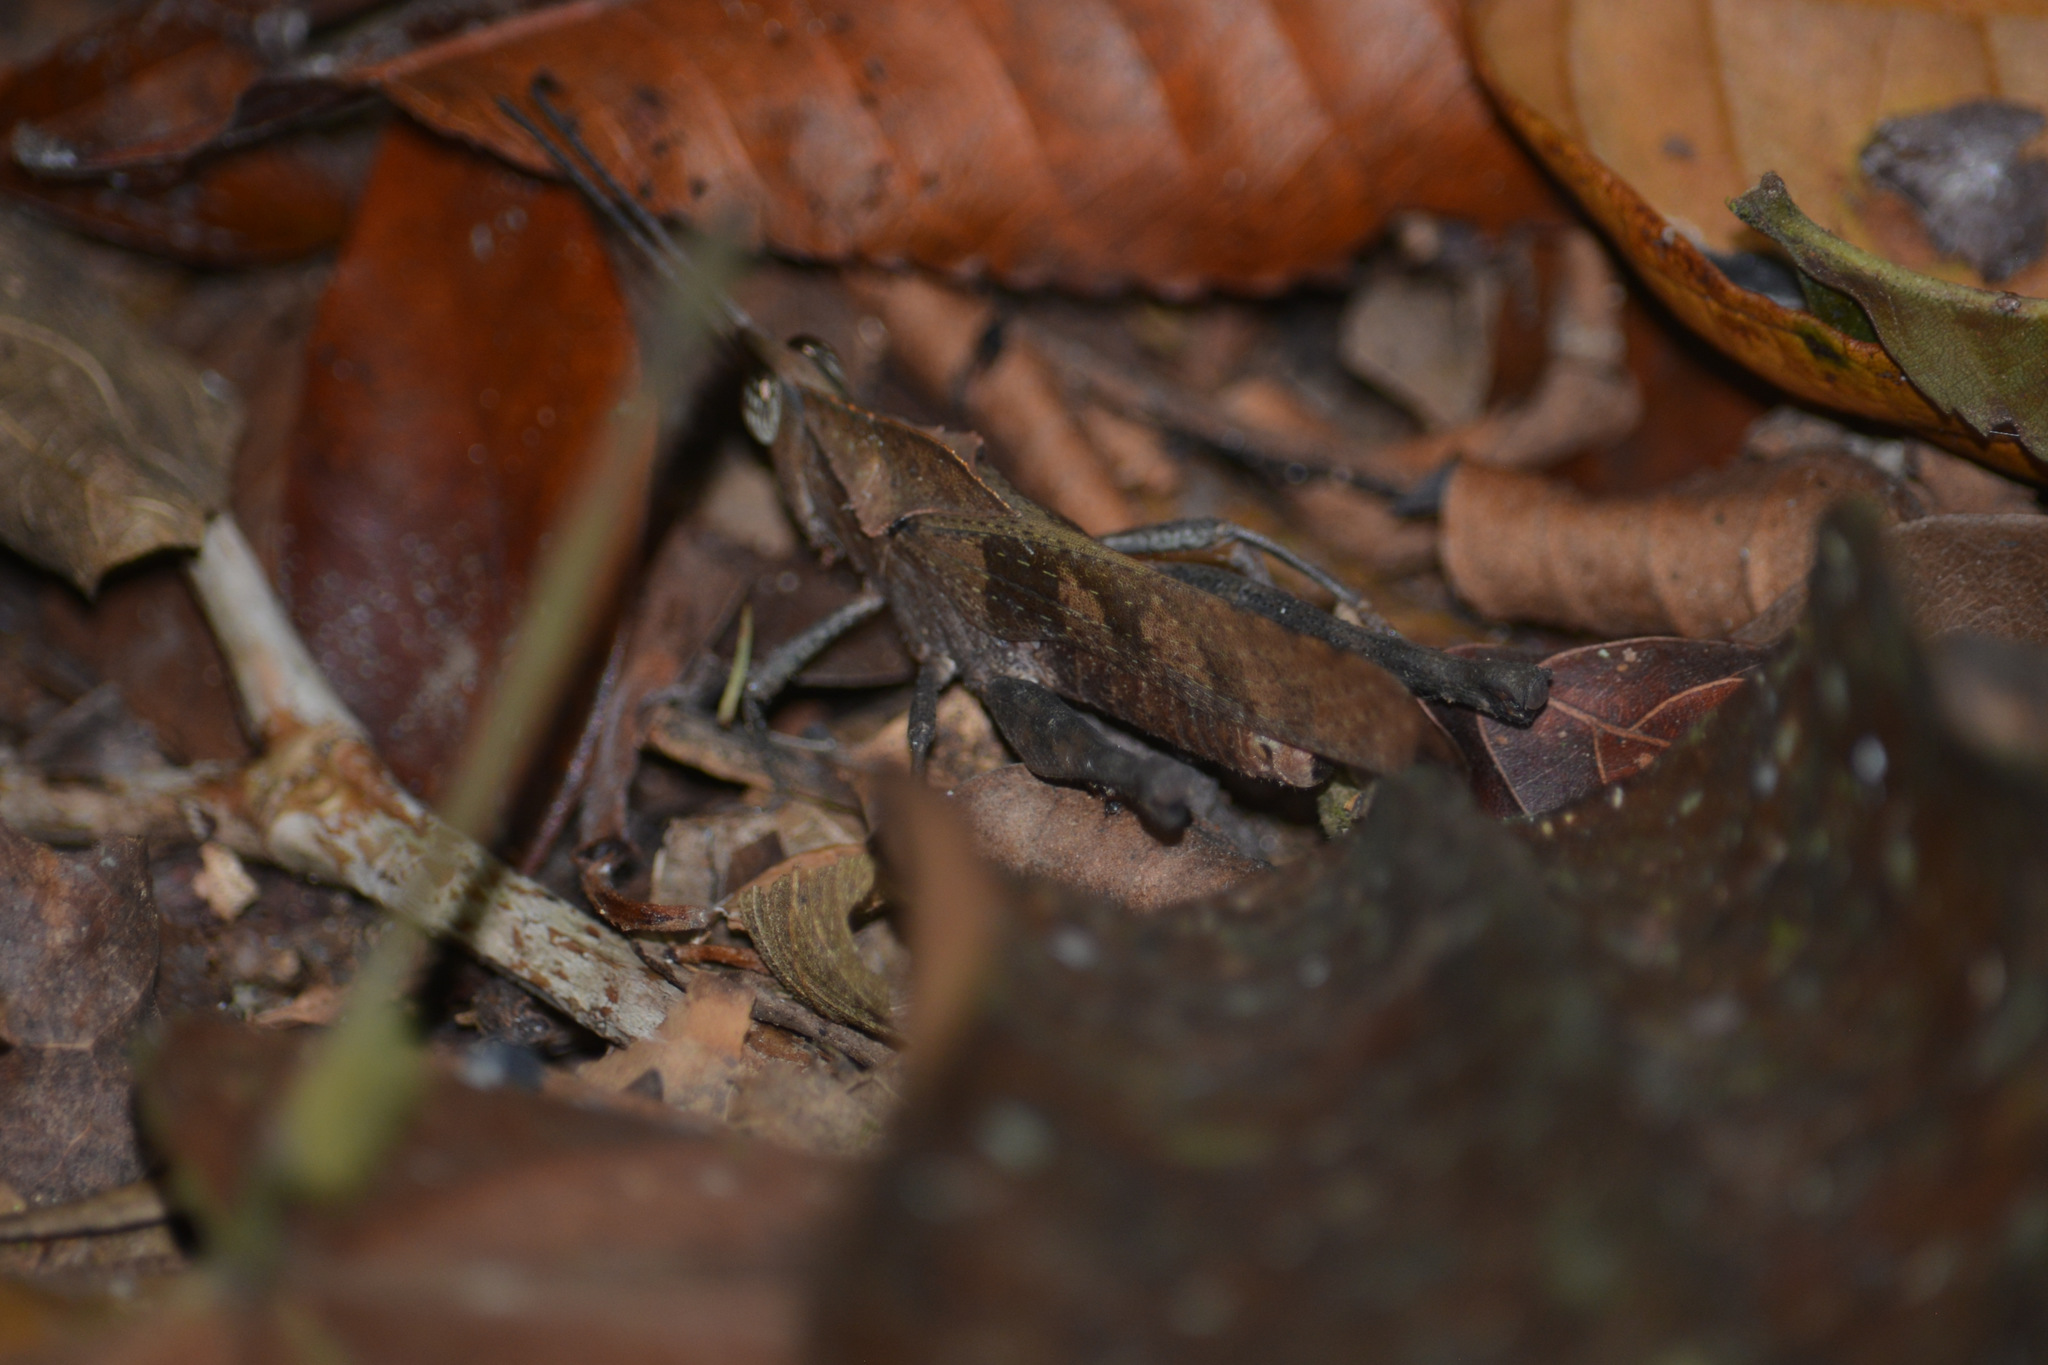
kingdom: Animalia
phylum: Arthropoda
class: Insecta
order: Orthoptera
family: Romaleidae
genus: Colpolopha
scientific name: Colpolopha obsoleta
